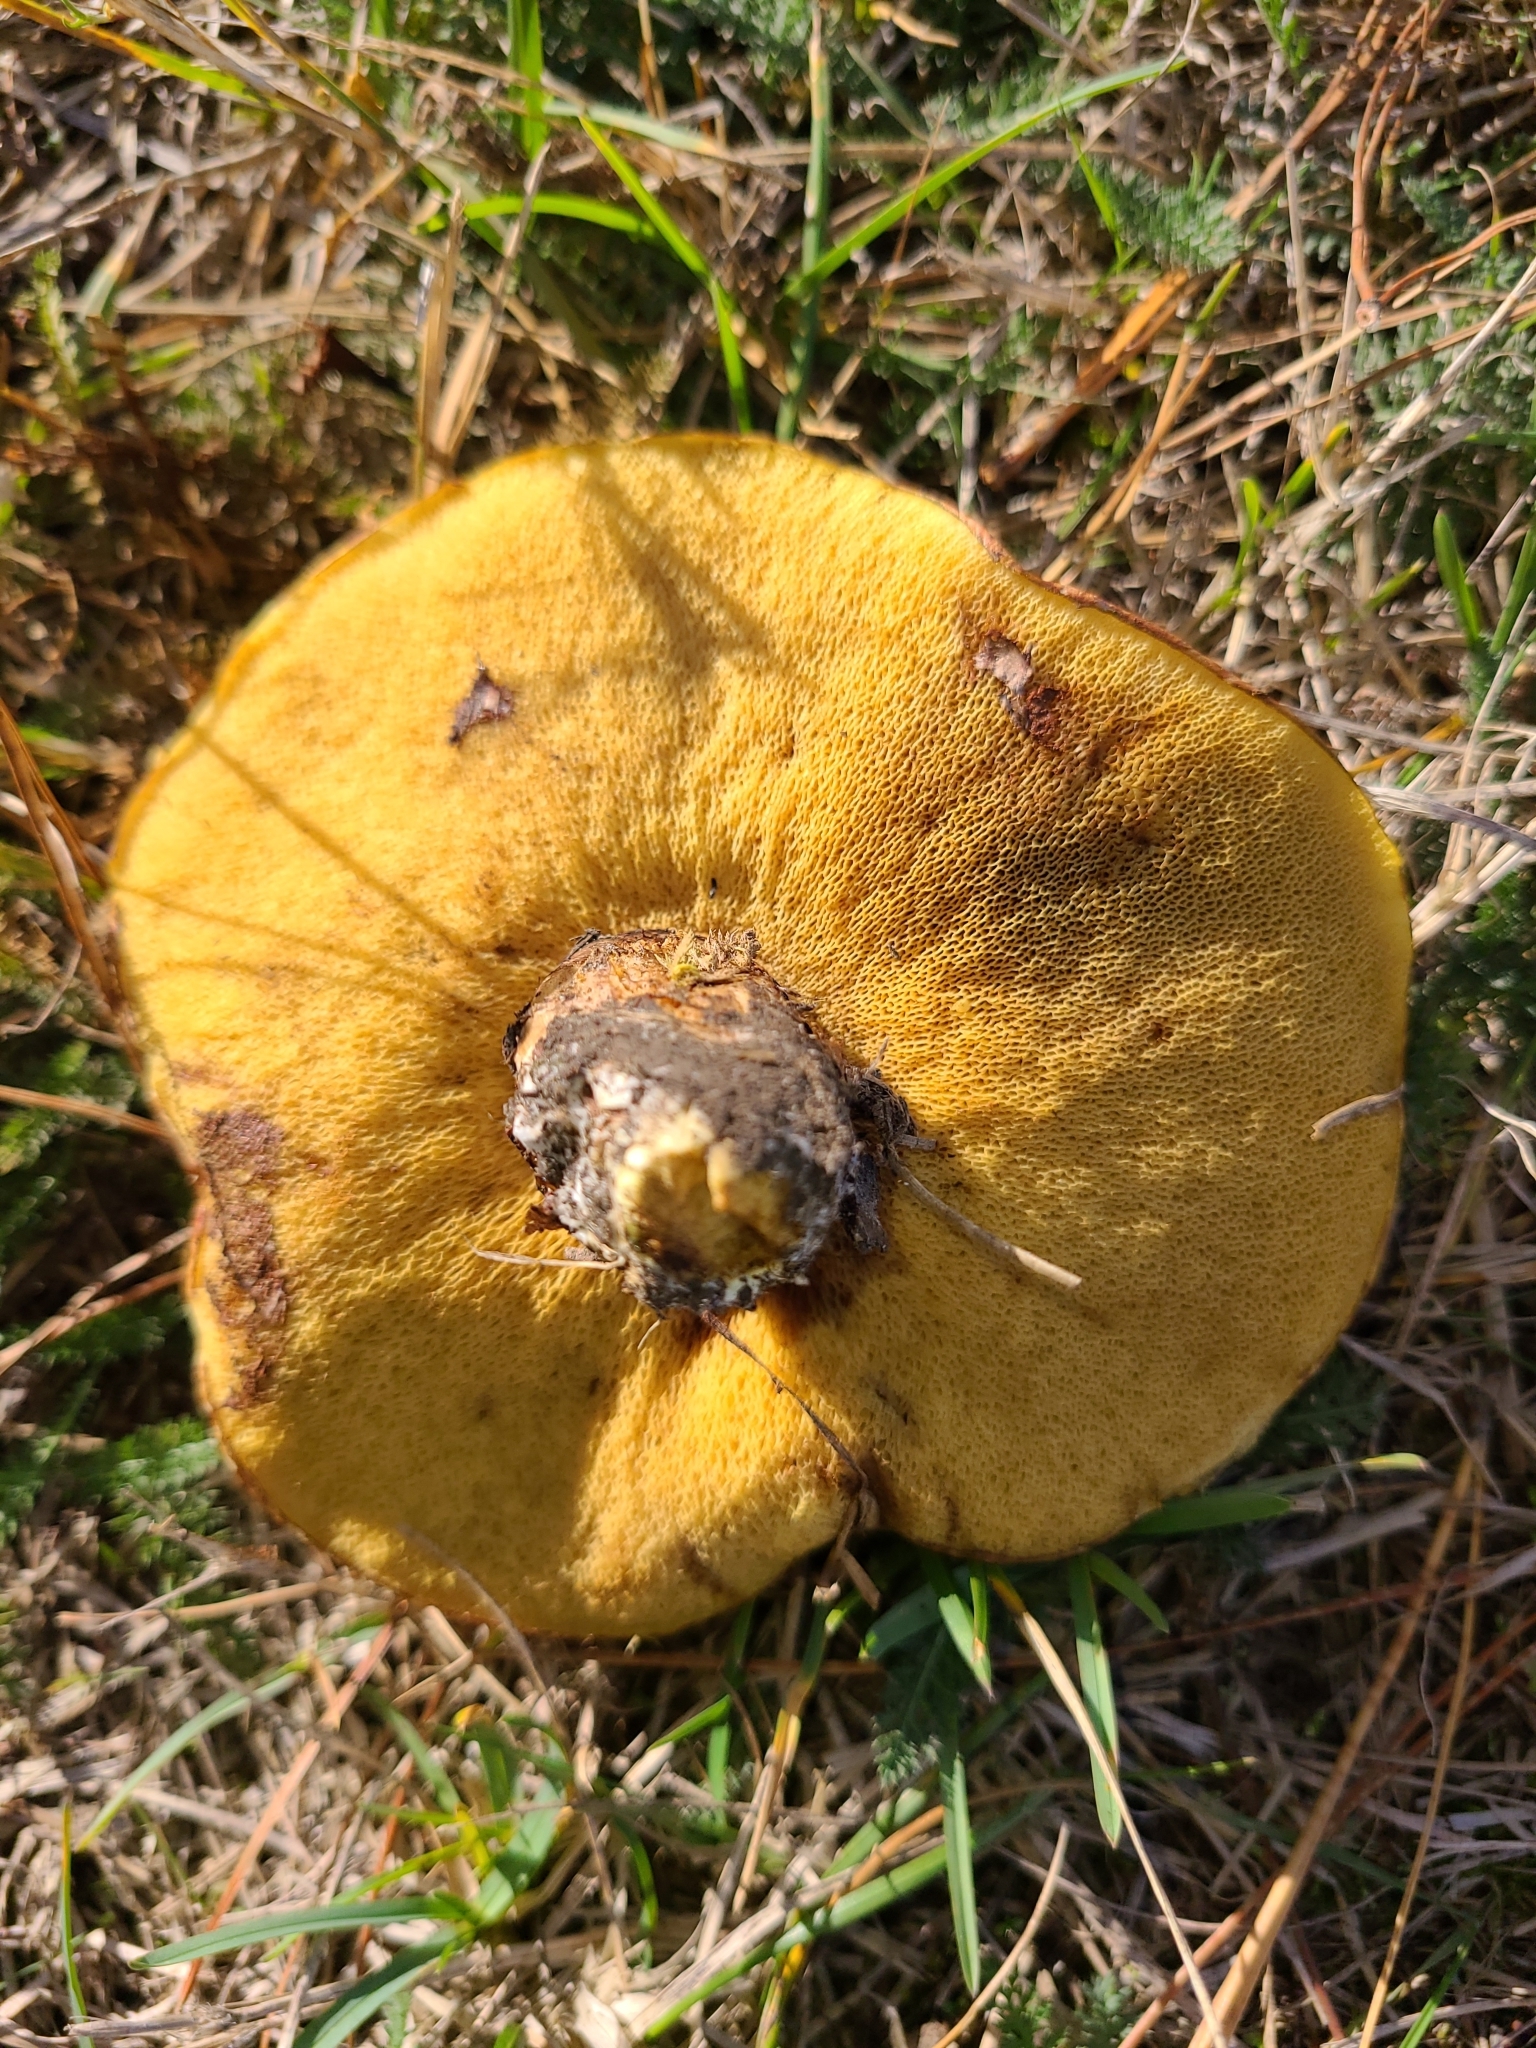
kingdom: Fungi
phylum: Basidiomycota
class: Agaricomycetes
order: Boletales
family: Suillaceae
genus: Suillus
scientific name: Suillus luteus
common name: Slippery jack
